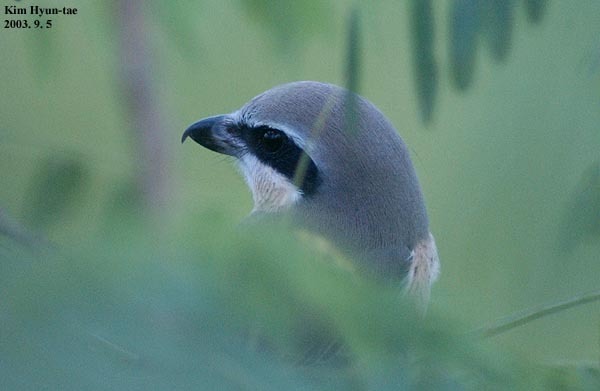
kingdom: Animalia
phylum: Chordata
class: Aves
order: Passeriformes
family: Laniidae
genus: Lanius
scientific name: Lanius cristatus
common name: Brown shrike
